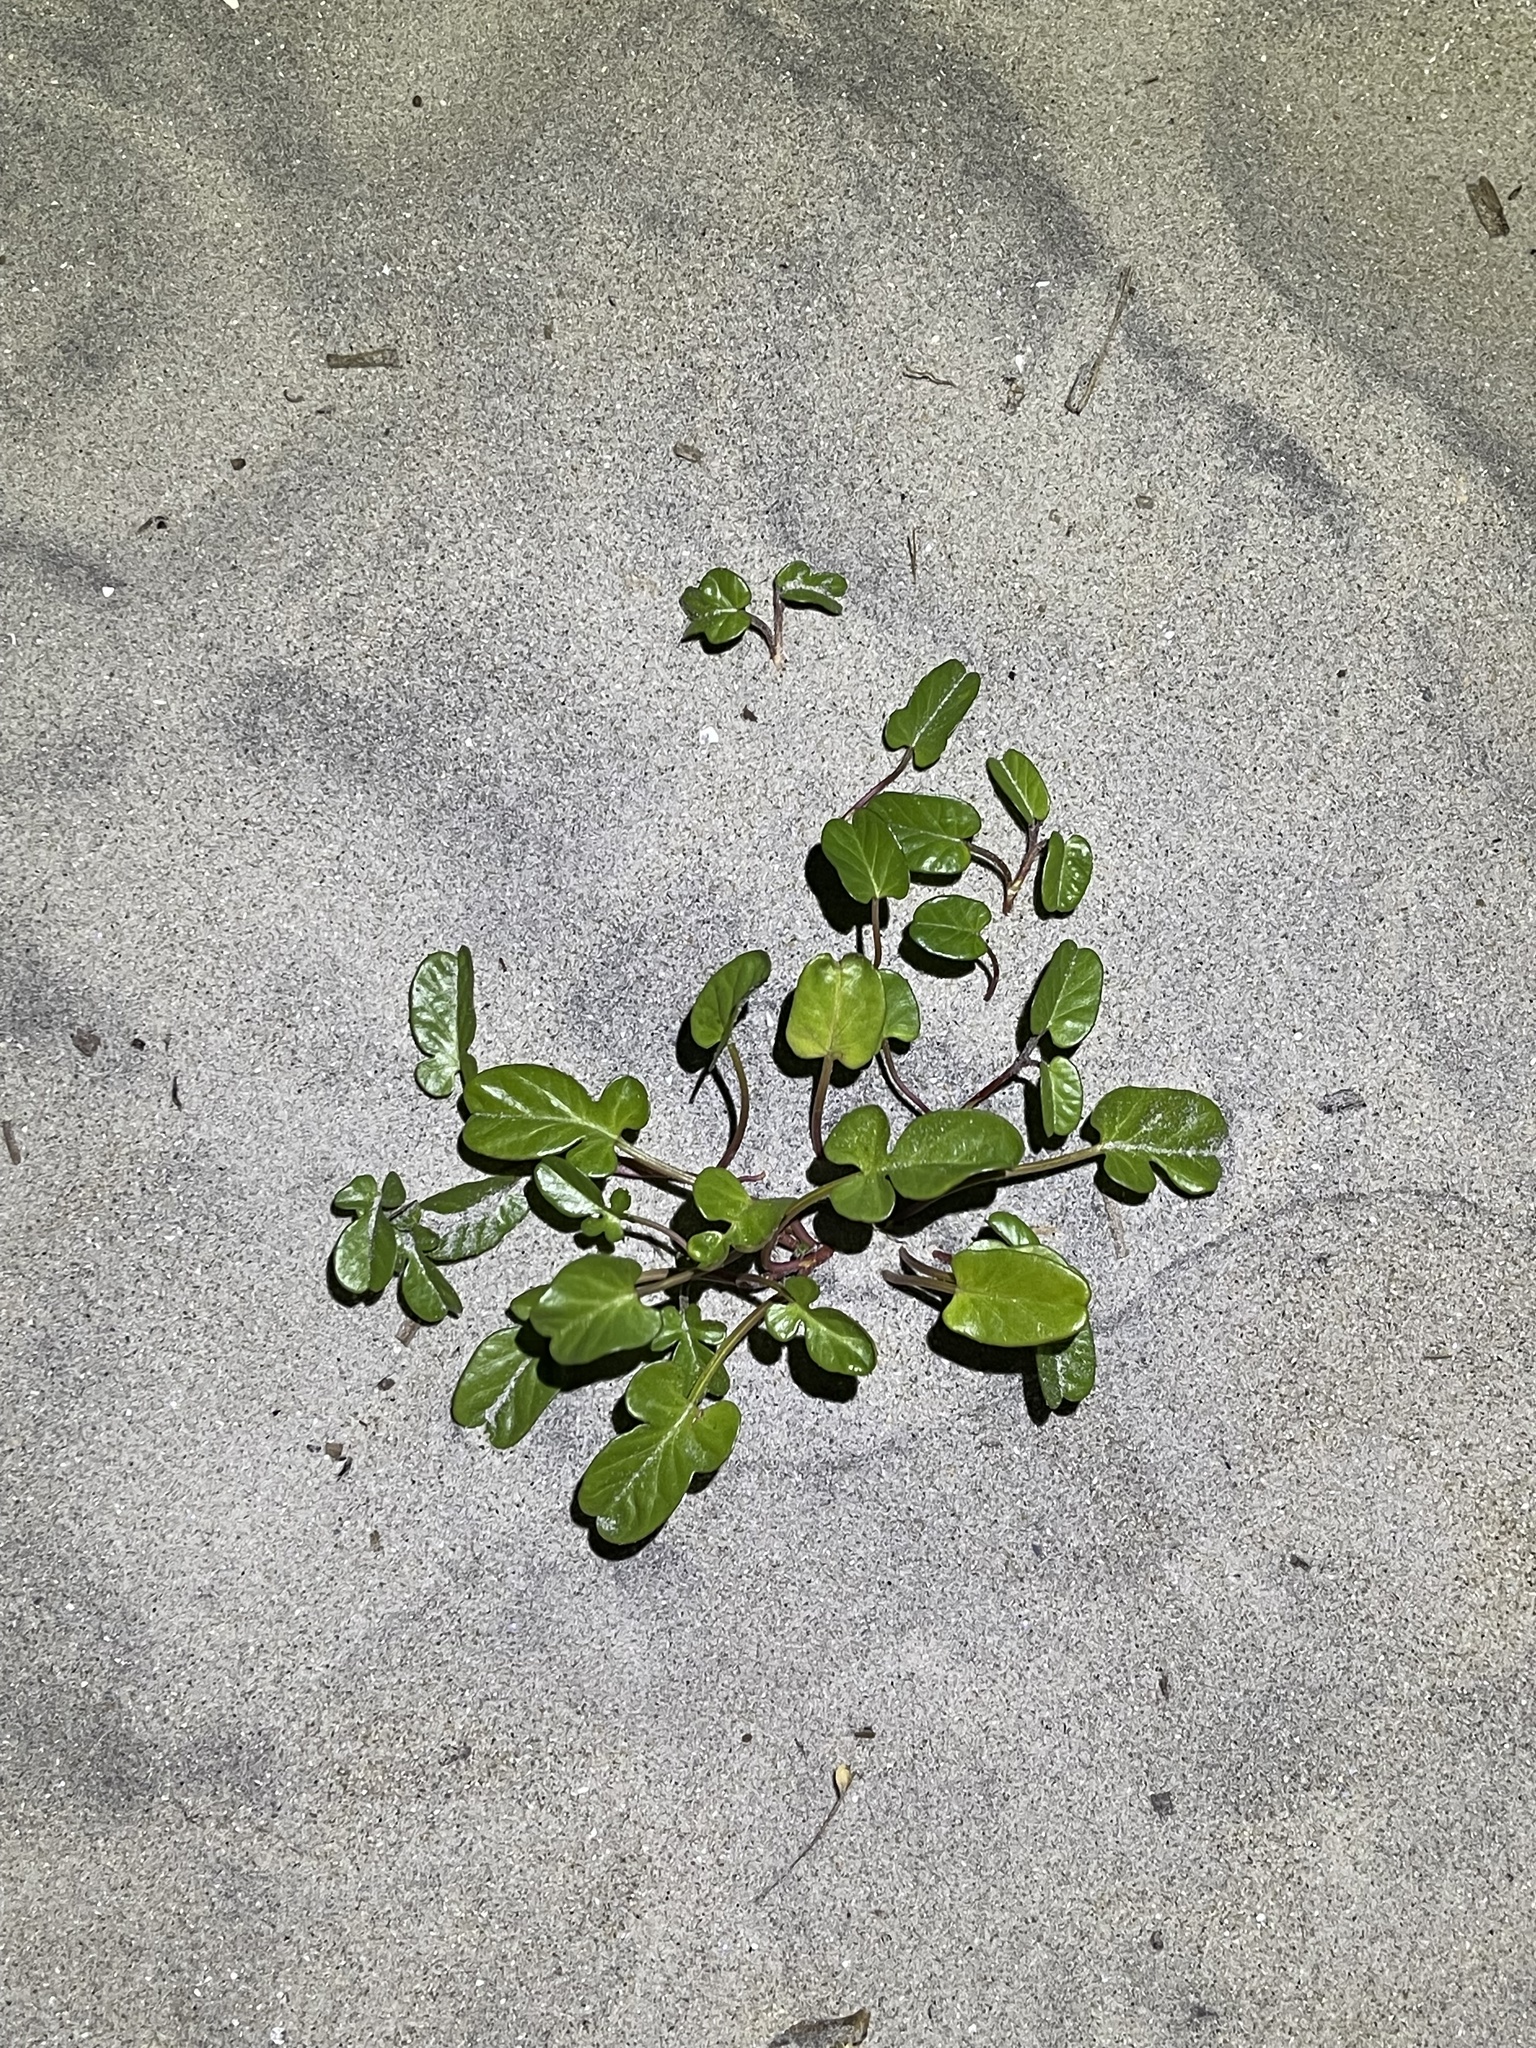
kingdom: Plantae
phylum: Tracheophyta
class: Magnoliopsida
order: Solanales
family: Convolvulaceae
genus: Ipomoea
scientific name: Ipomoea imperati
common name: Fiddle-leaf morning-glory
